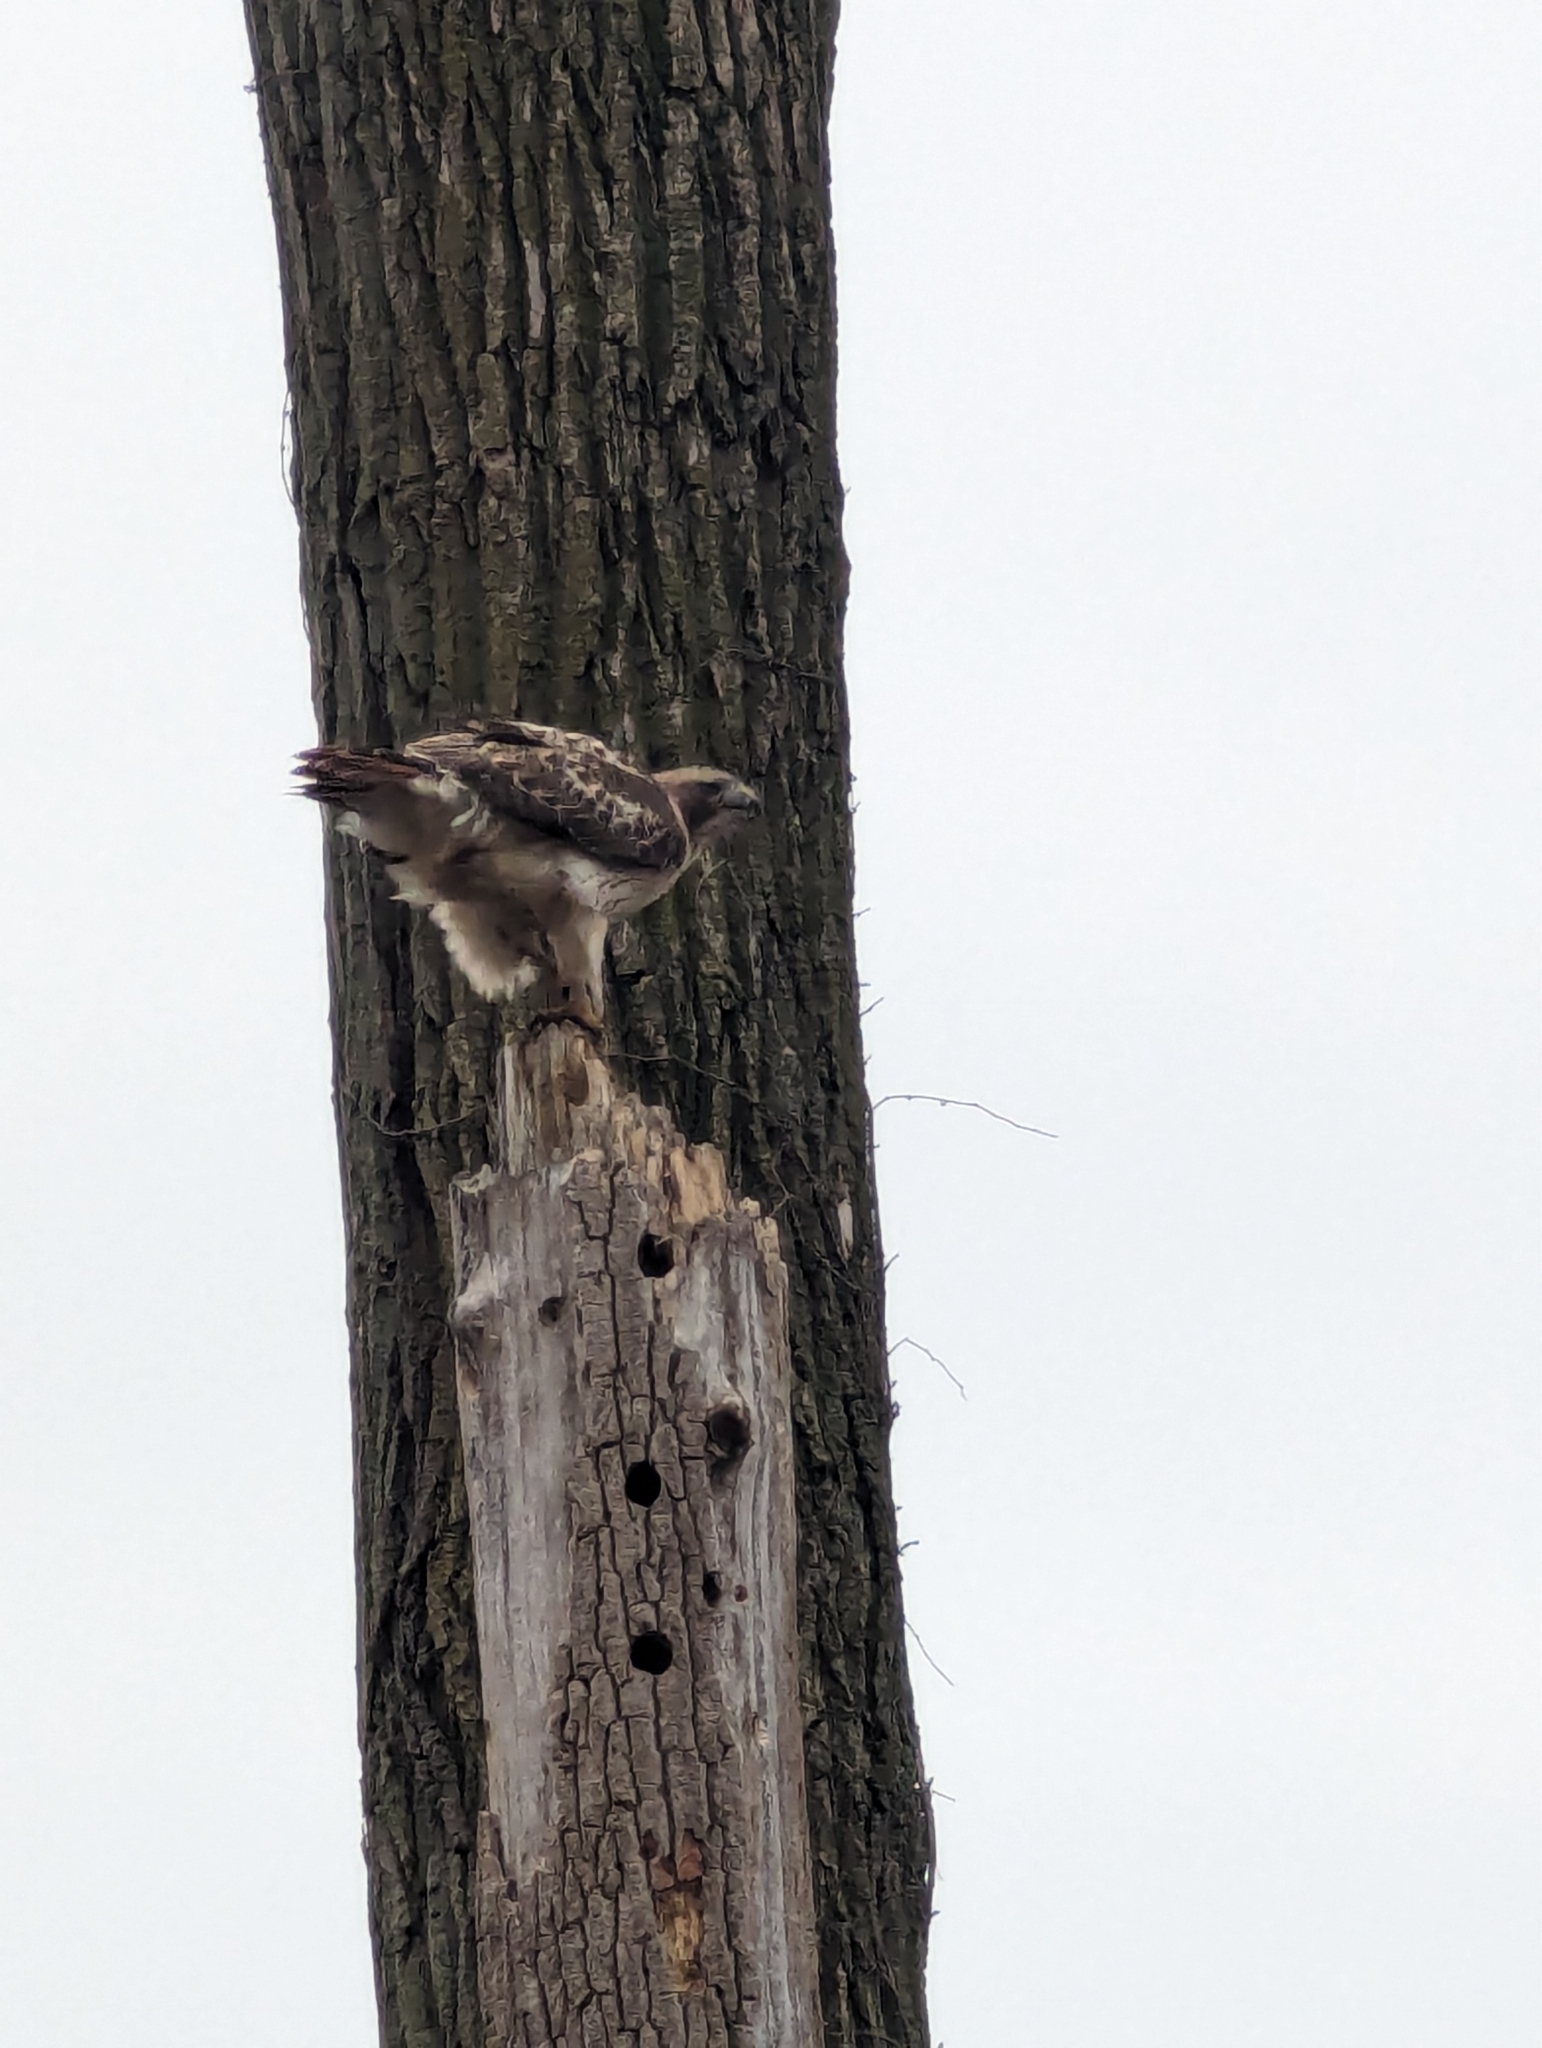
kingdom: Animalia
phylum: Chordata
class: Aves
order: Accipitriformes
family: Accipitridae
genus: Buteo
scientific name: Buteo jamaicensis
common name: Red-tailed hawk
